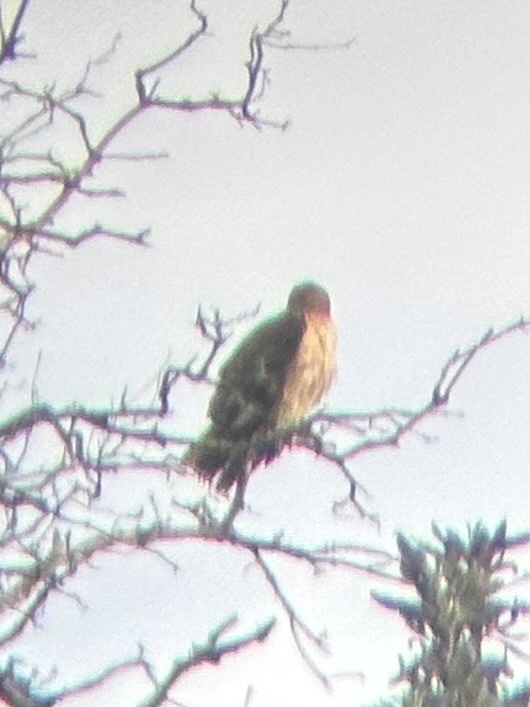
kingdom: Animalia
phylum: Chordata
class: Aves
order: Accipitriformes
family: Accipitridae
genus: Buteo
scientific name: Buteo jamaicensis
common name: Red-tailed hawk
